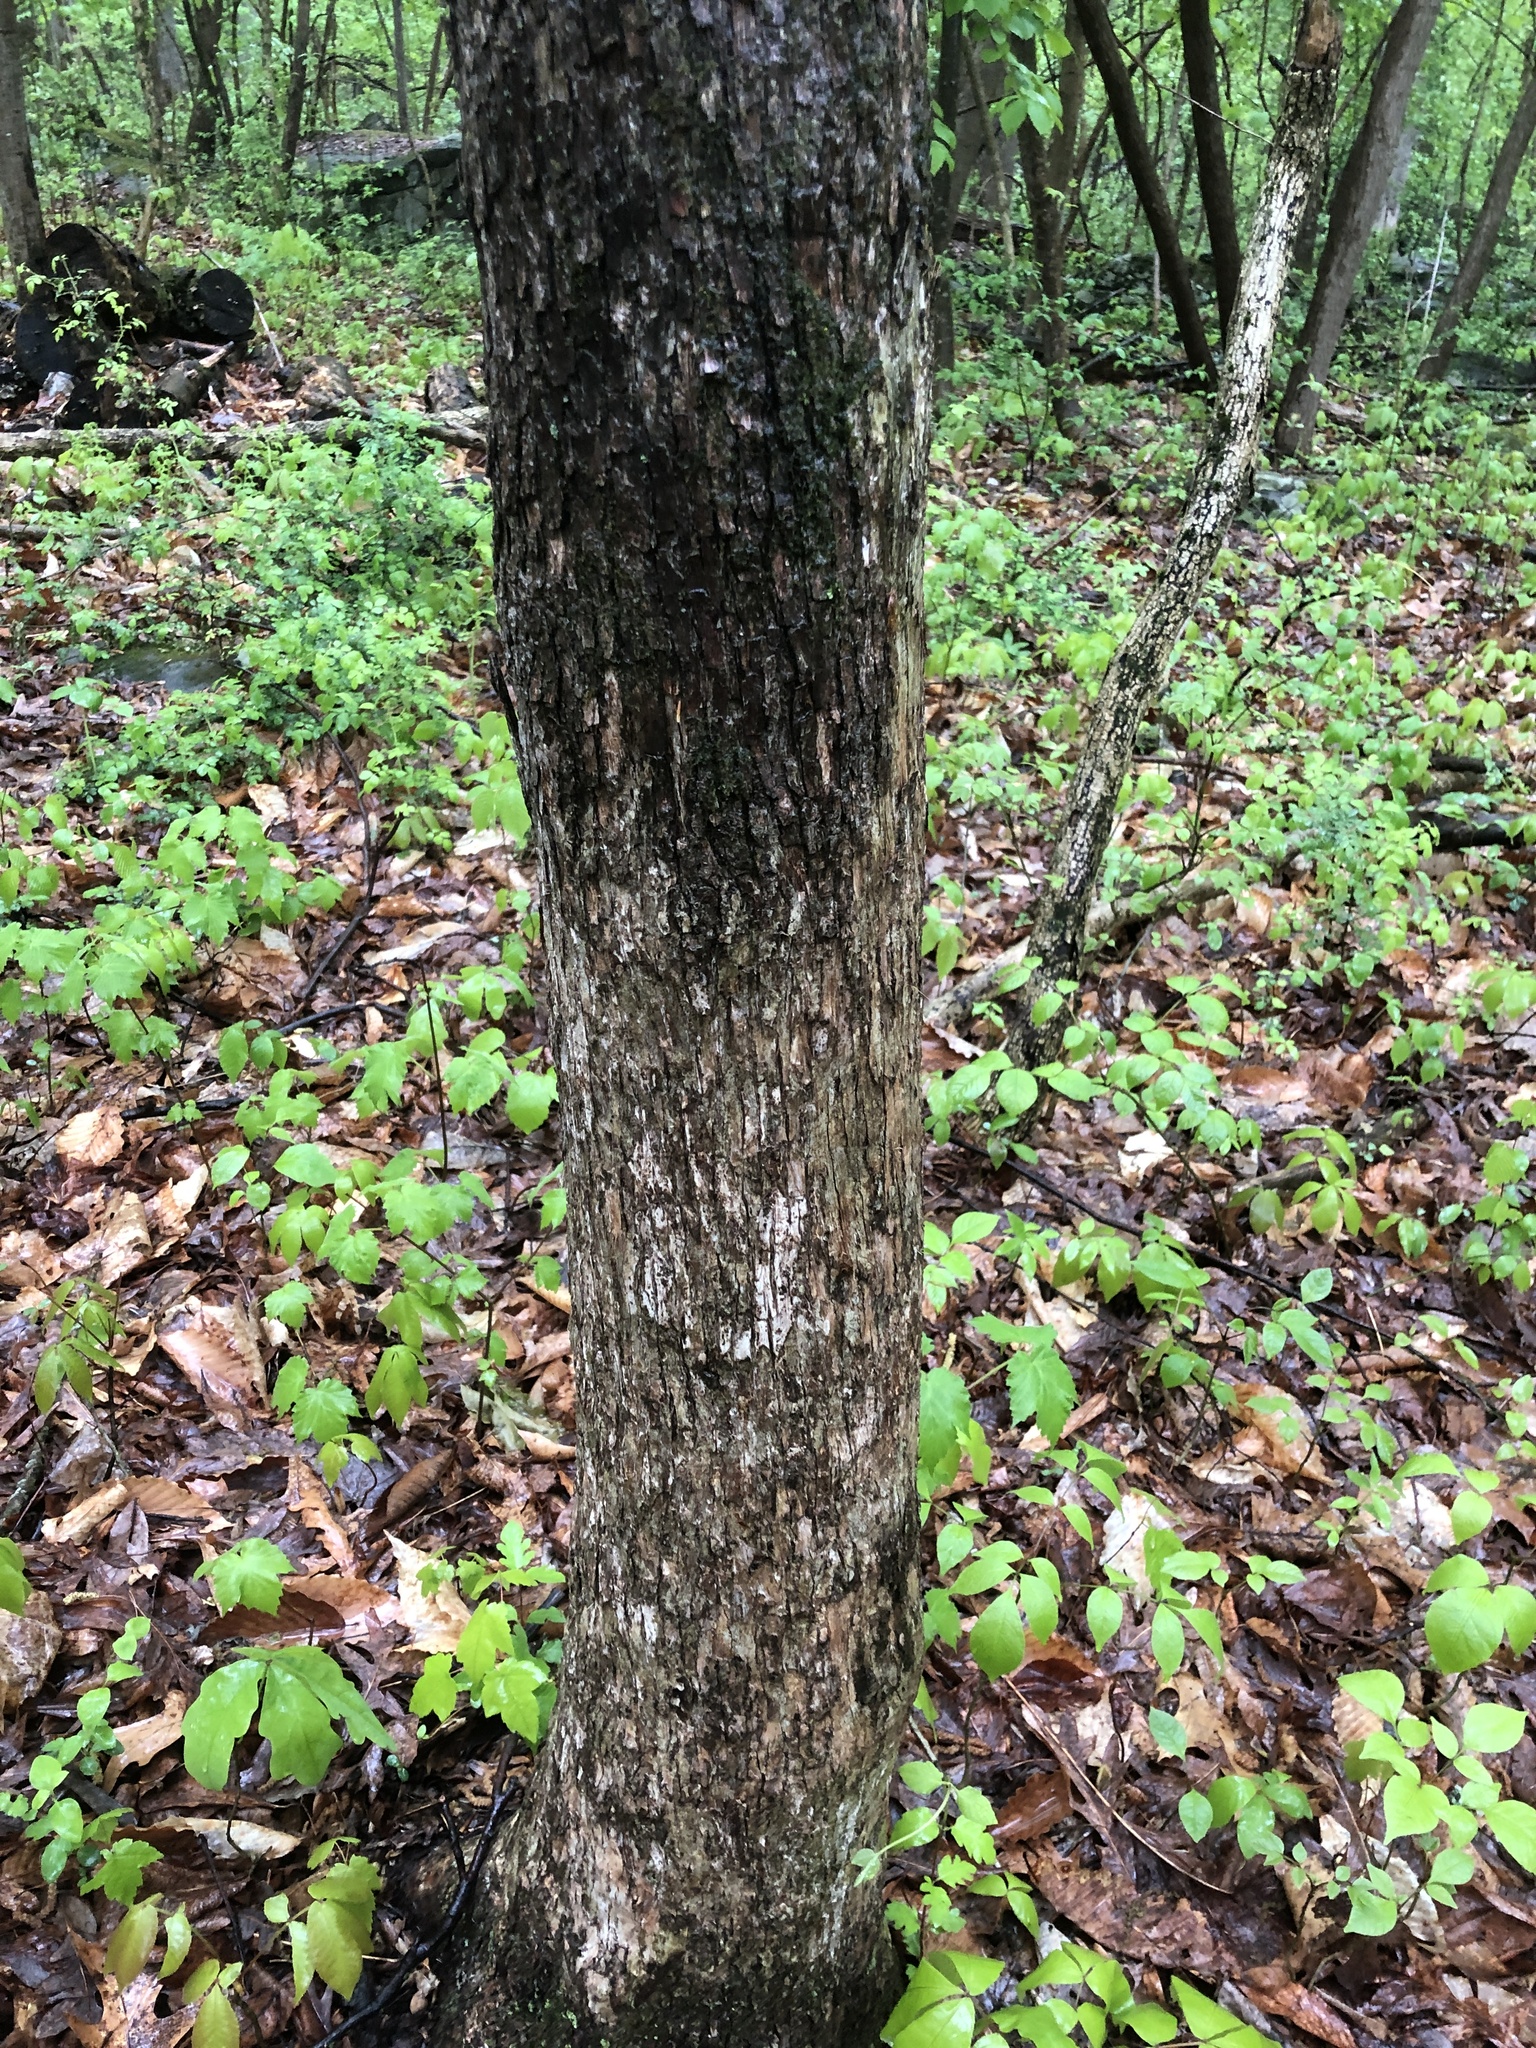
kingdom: Plantae
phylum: Tracheophyta
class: Magnoliopsida
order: Fagales
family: Betulaceae
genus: Ostrya
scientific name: Ostrya virginiana
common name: Ironwood
